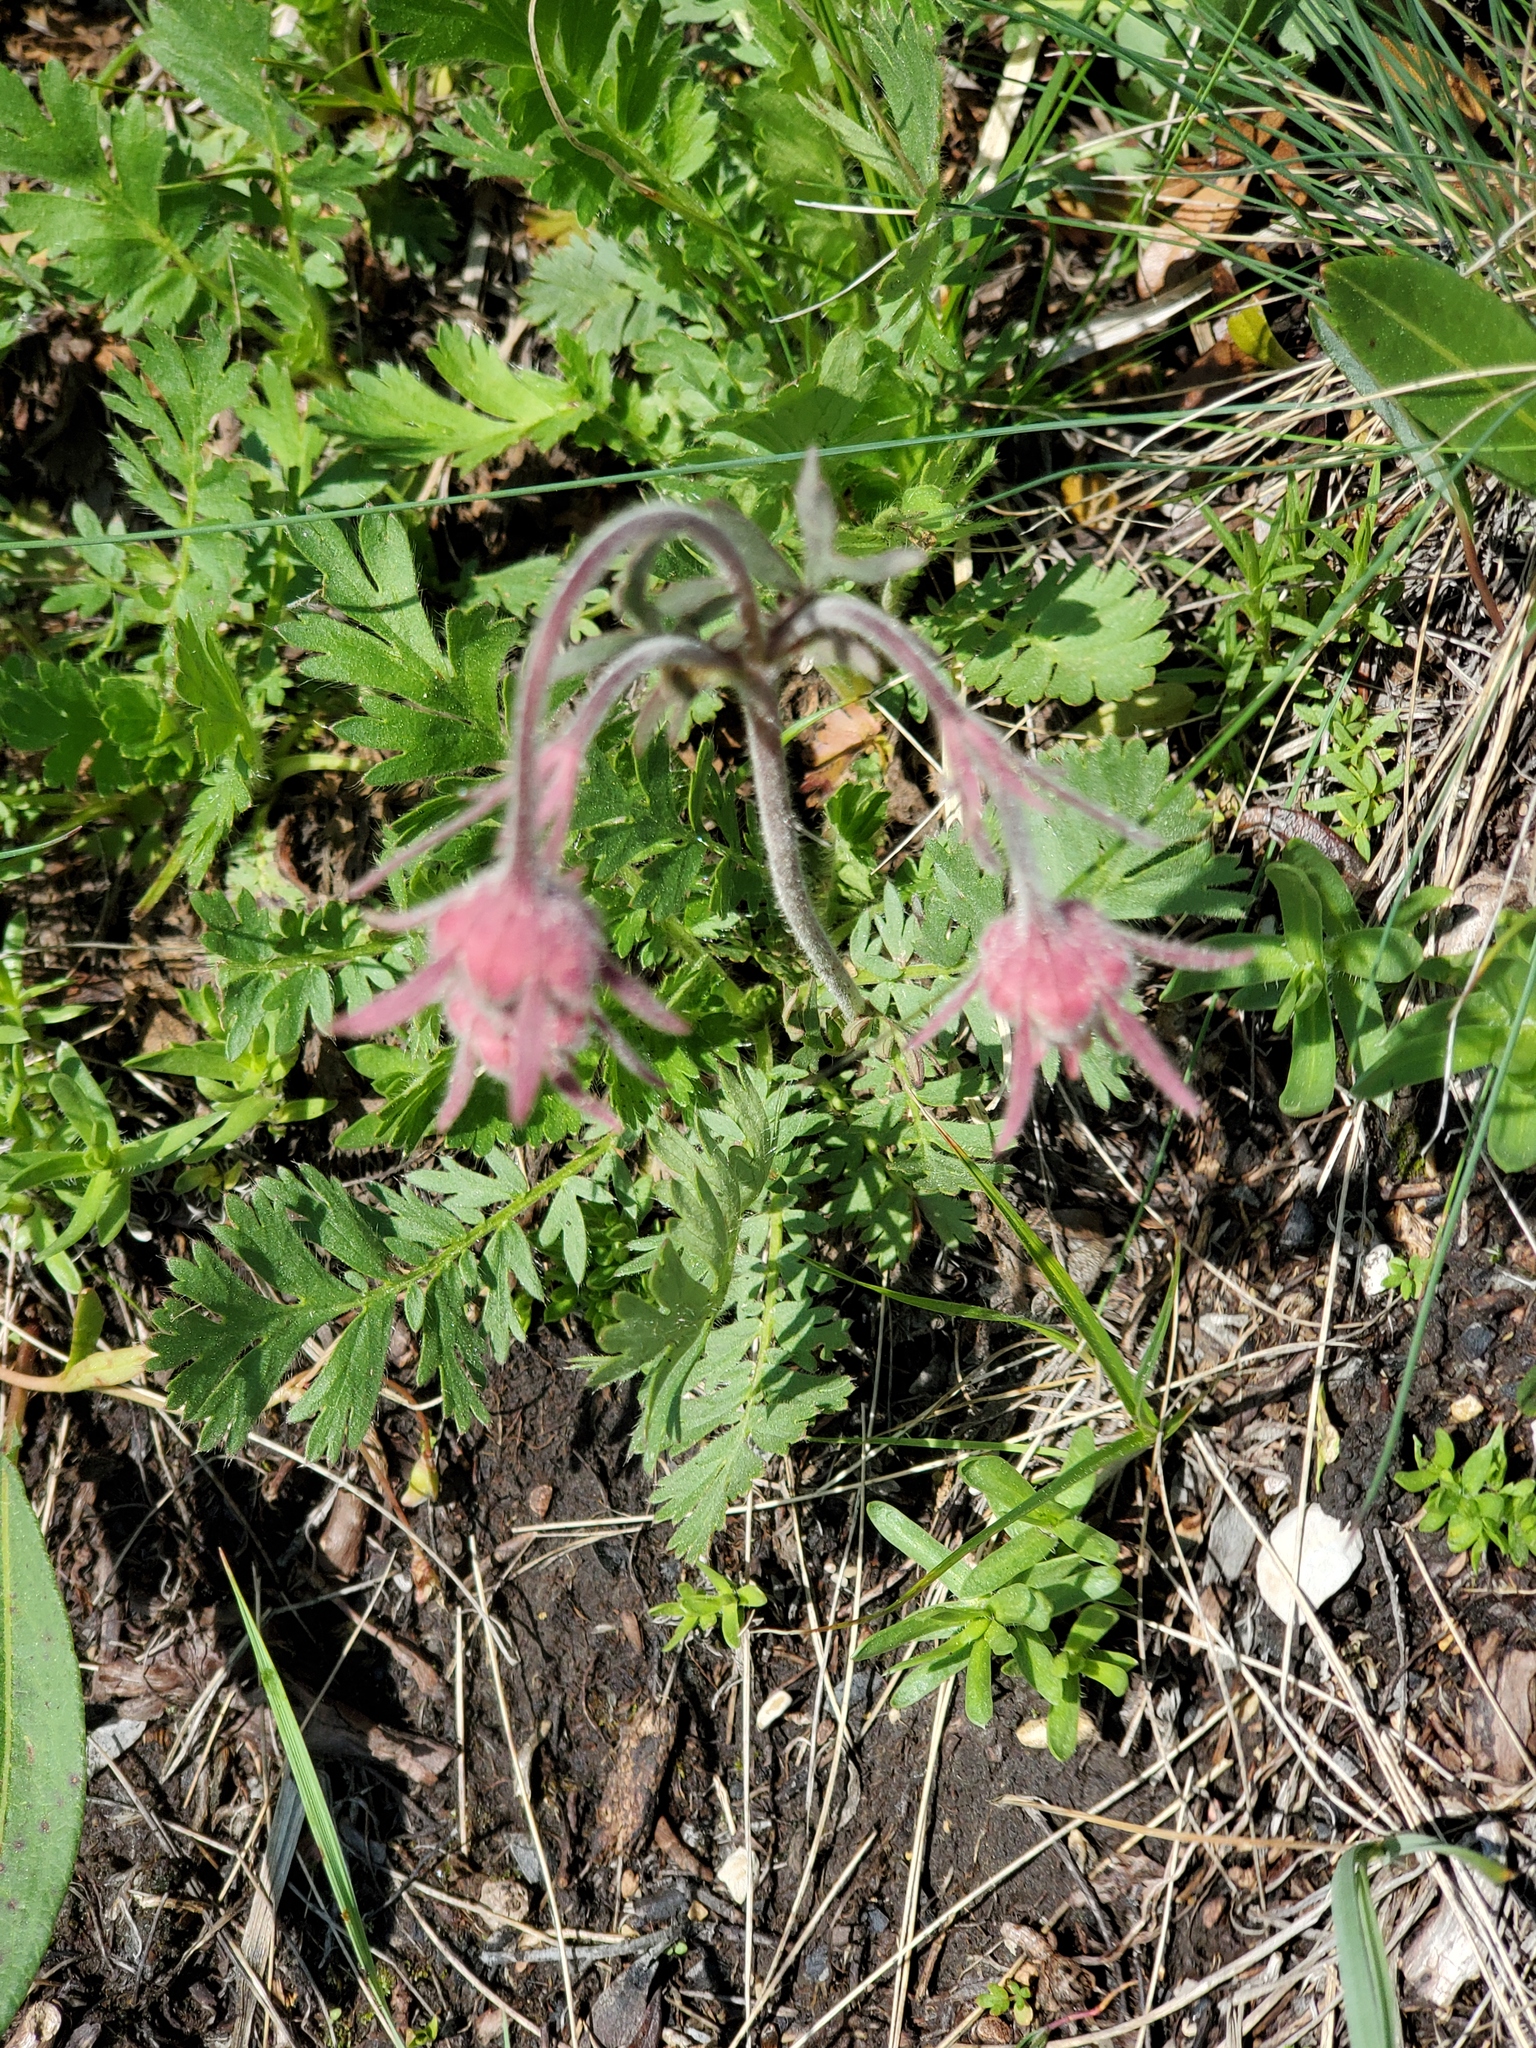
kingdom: Plantae
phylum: Tracheophyta
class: Magnoliopsida
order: Rosales
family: Rosaceae
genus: Geum
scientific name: Geum triflorum
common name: Old man's whiskers
